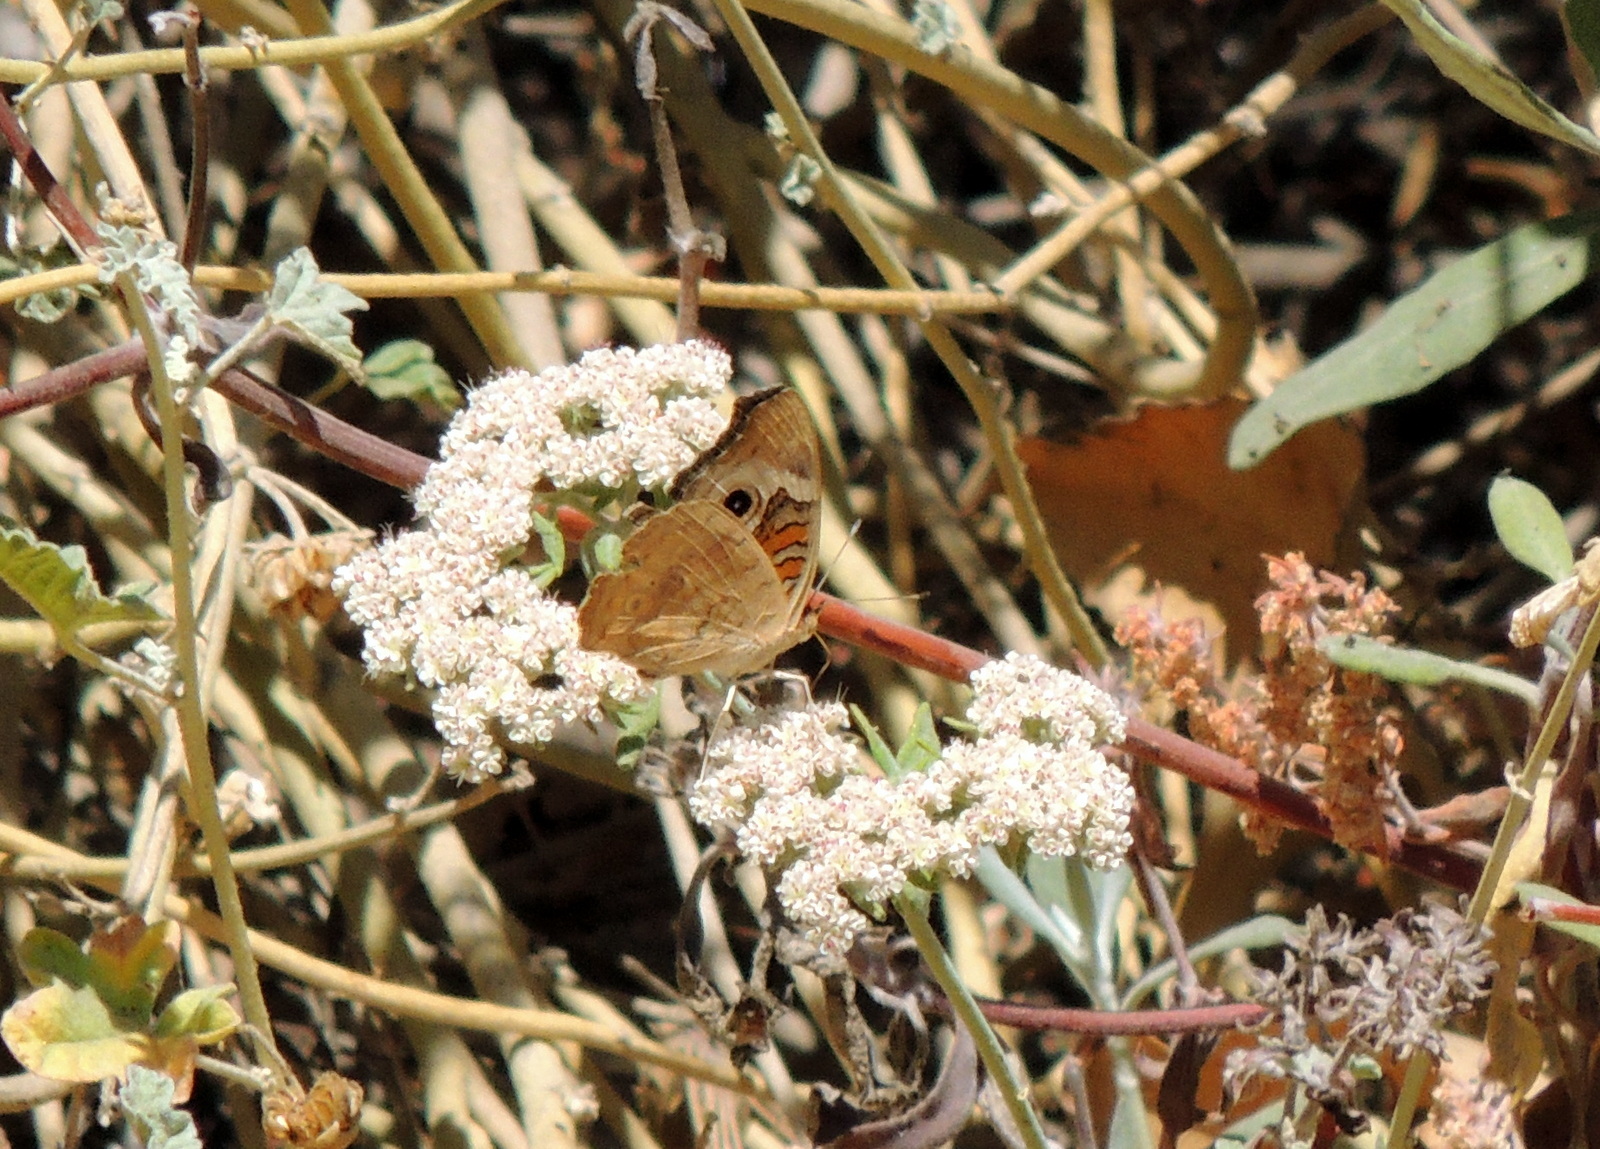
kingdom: Animalia
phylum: Arthropoda
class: Insecta
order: Lepidoptera
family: Nymphalidae
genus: Junonia
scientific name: Junonia grisea
